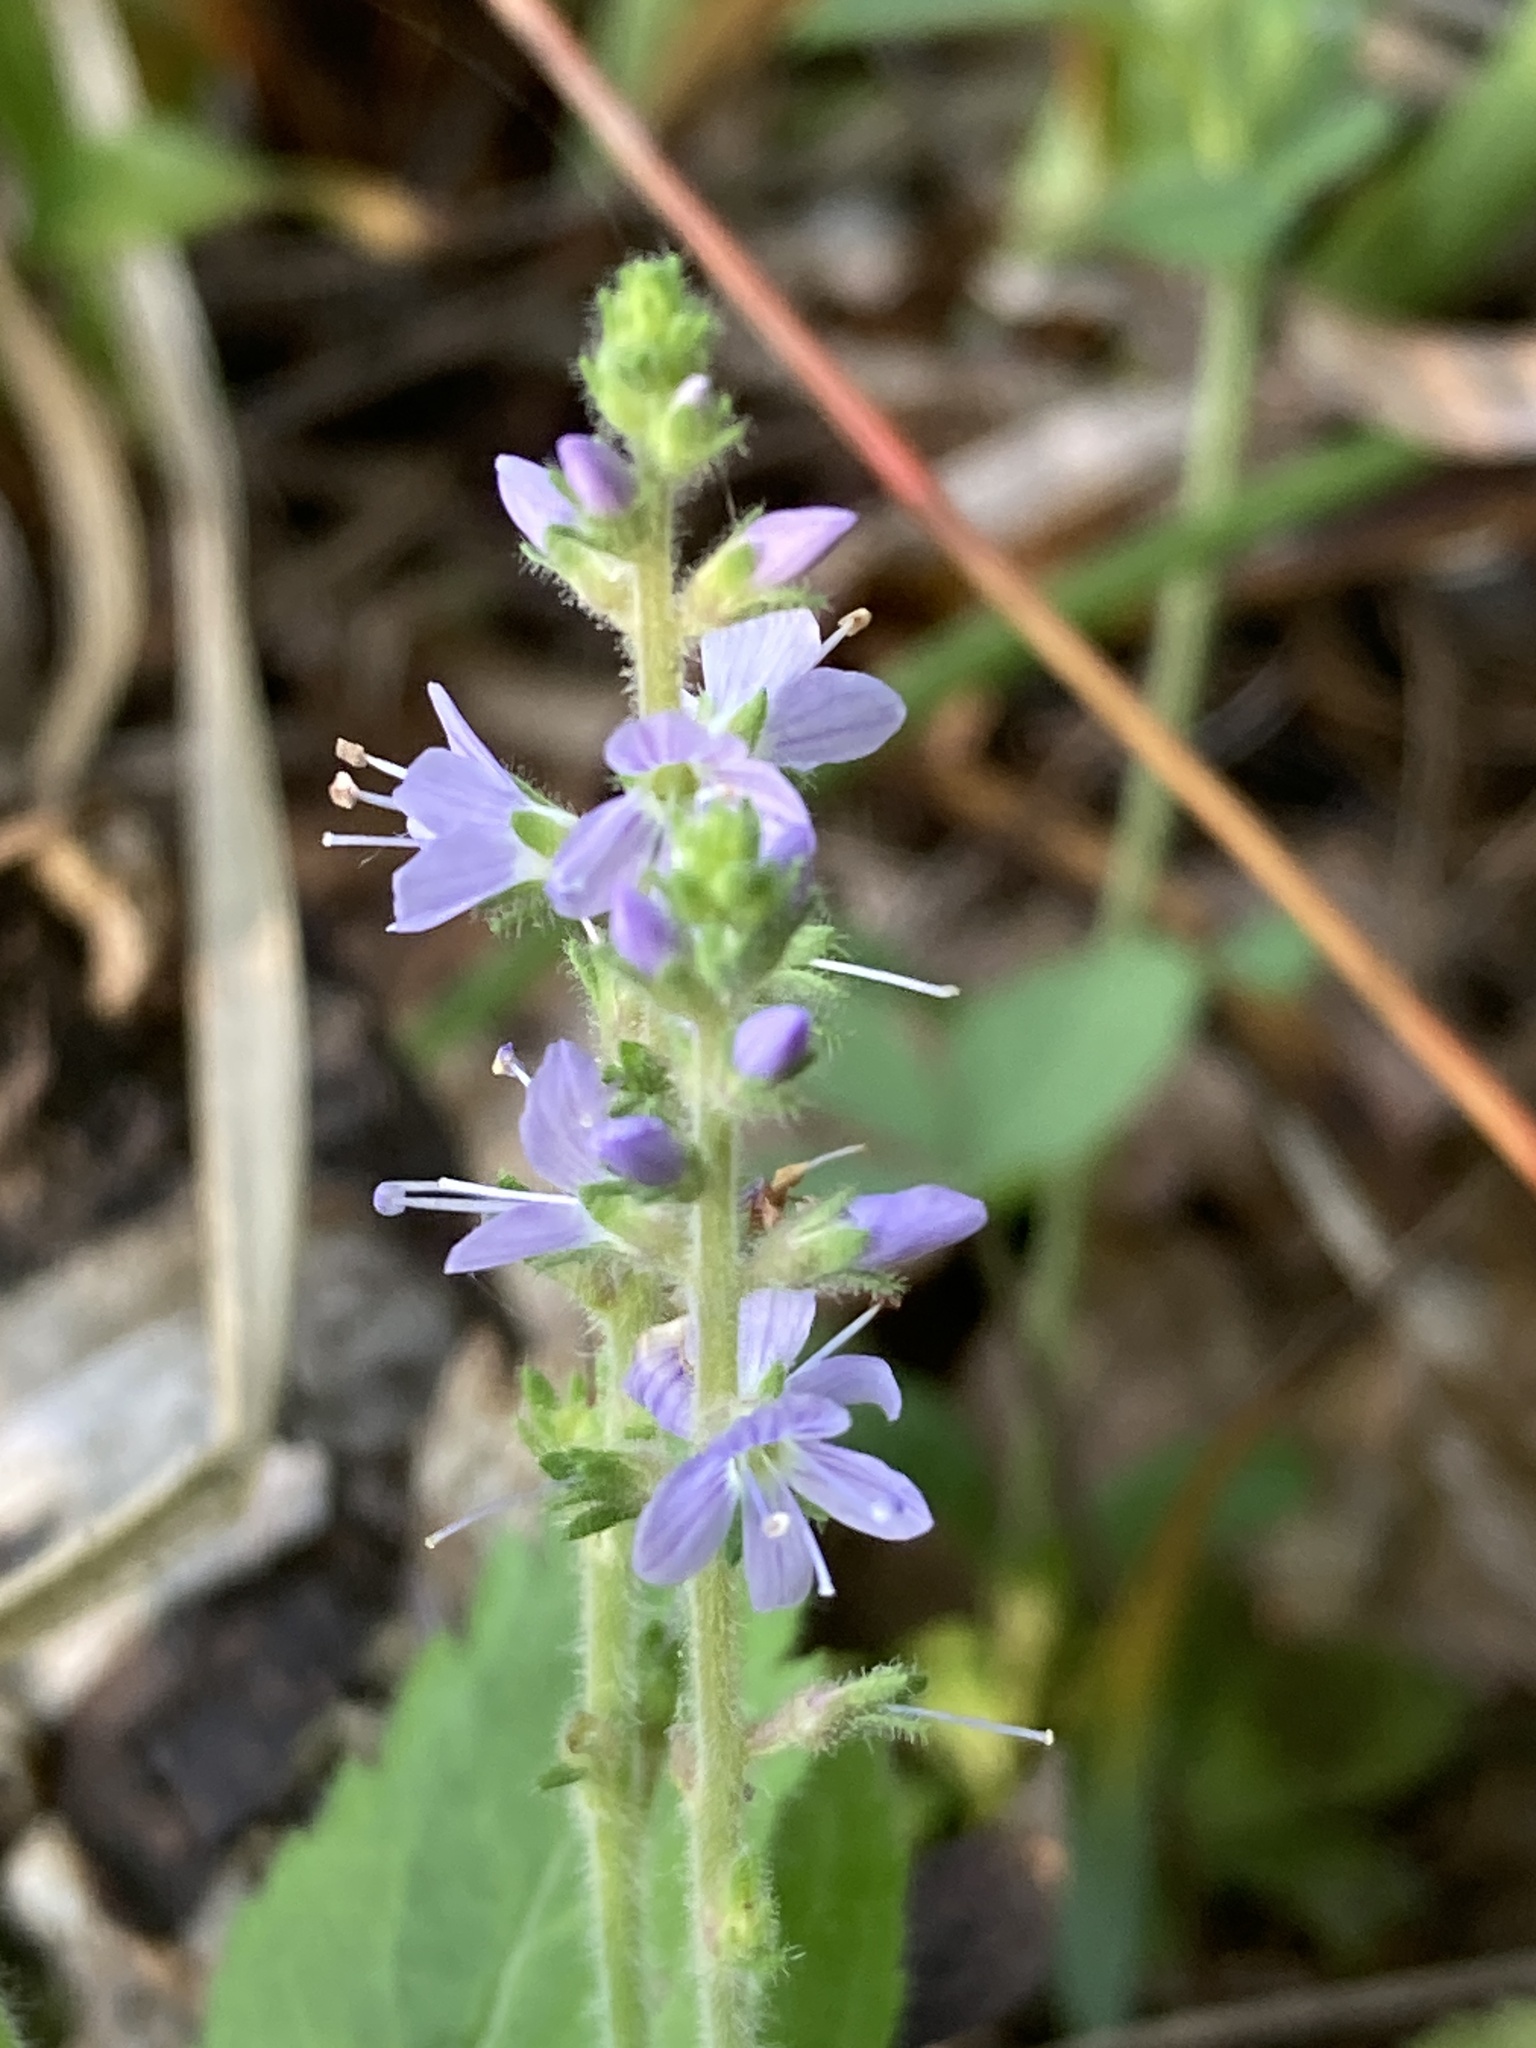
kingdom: Plantae
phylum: Tracheophyta
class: Magnoliopsida
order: Lamiales
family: Plantaginaceae
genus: Veronica
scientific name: Veronica officinalis
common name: Common speedwell
